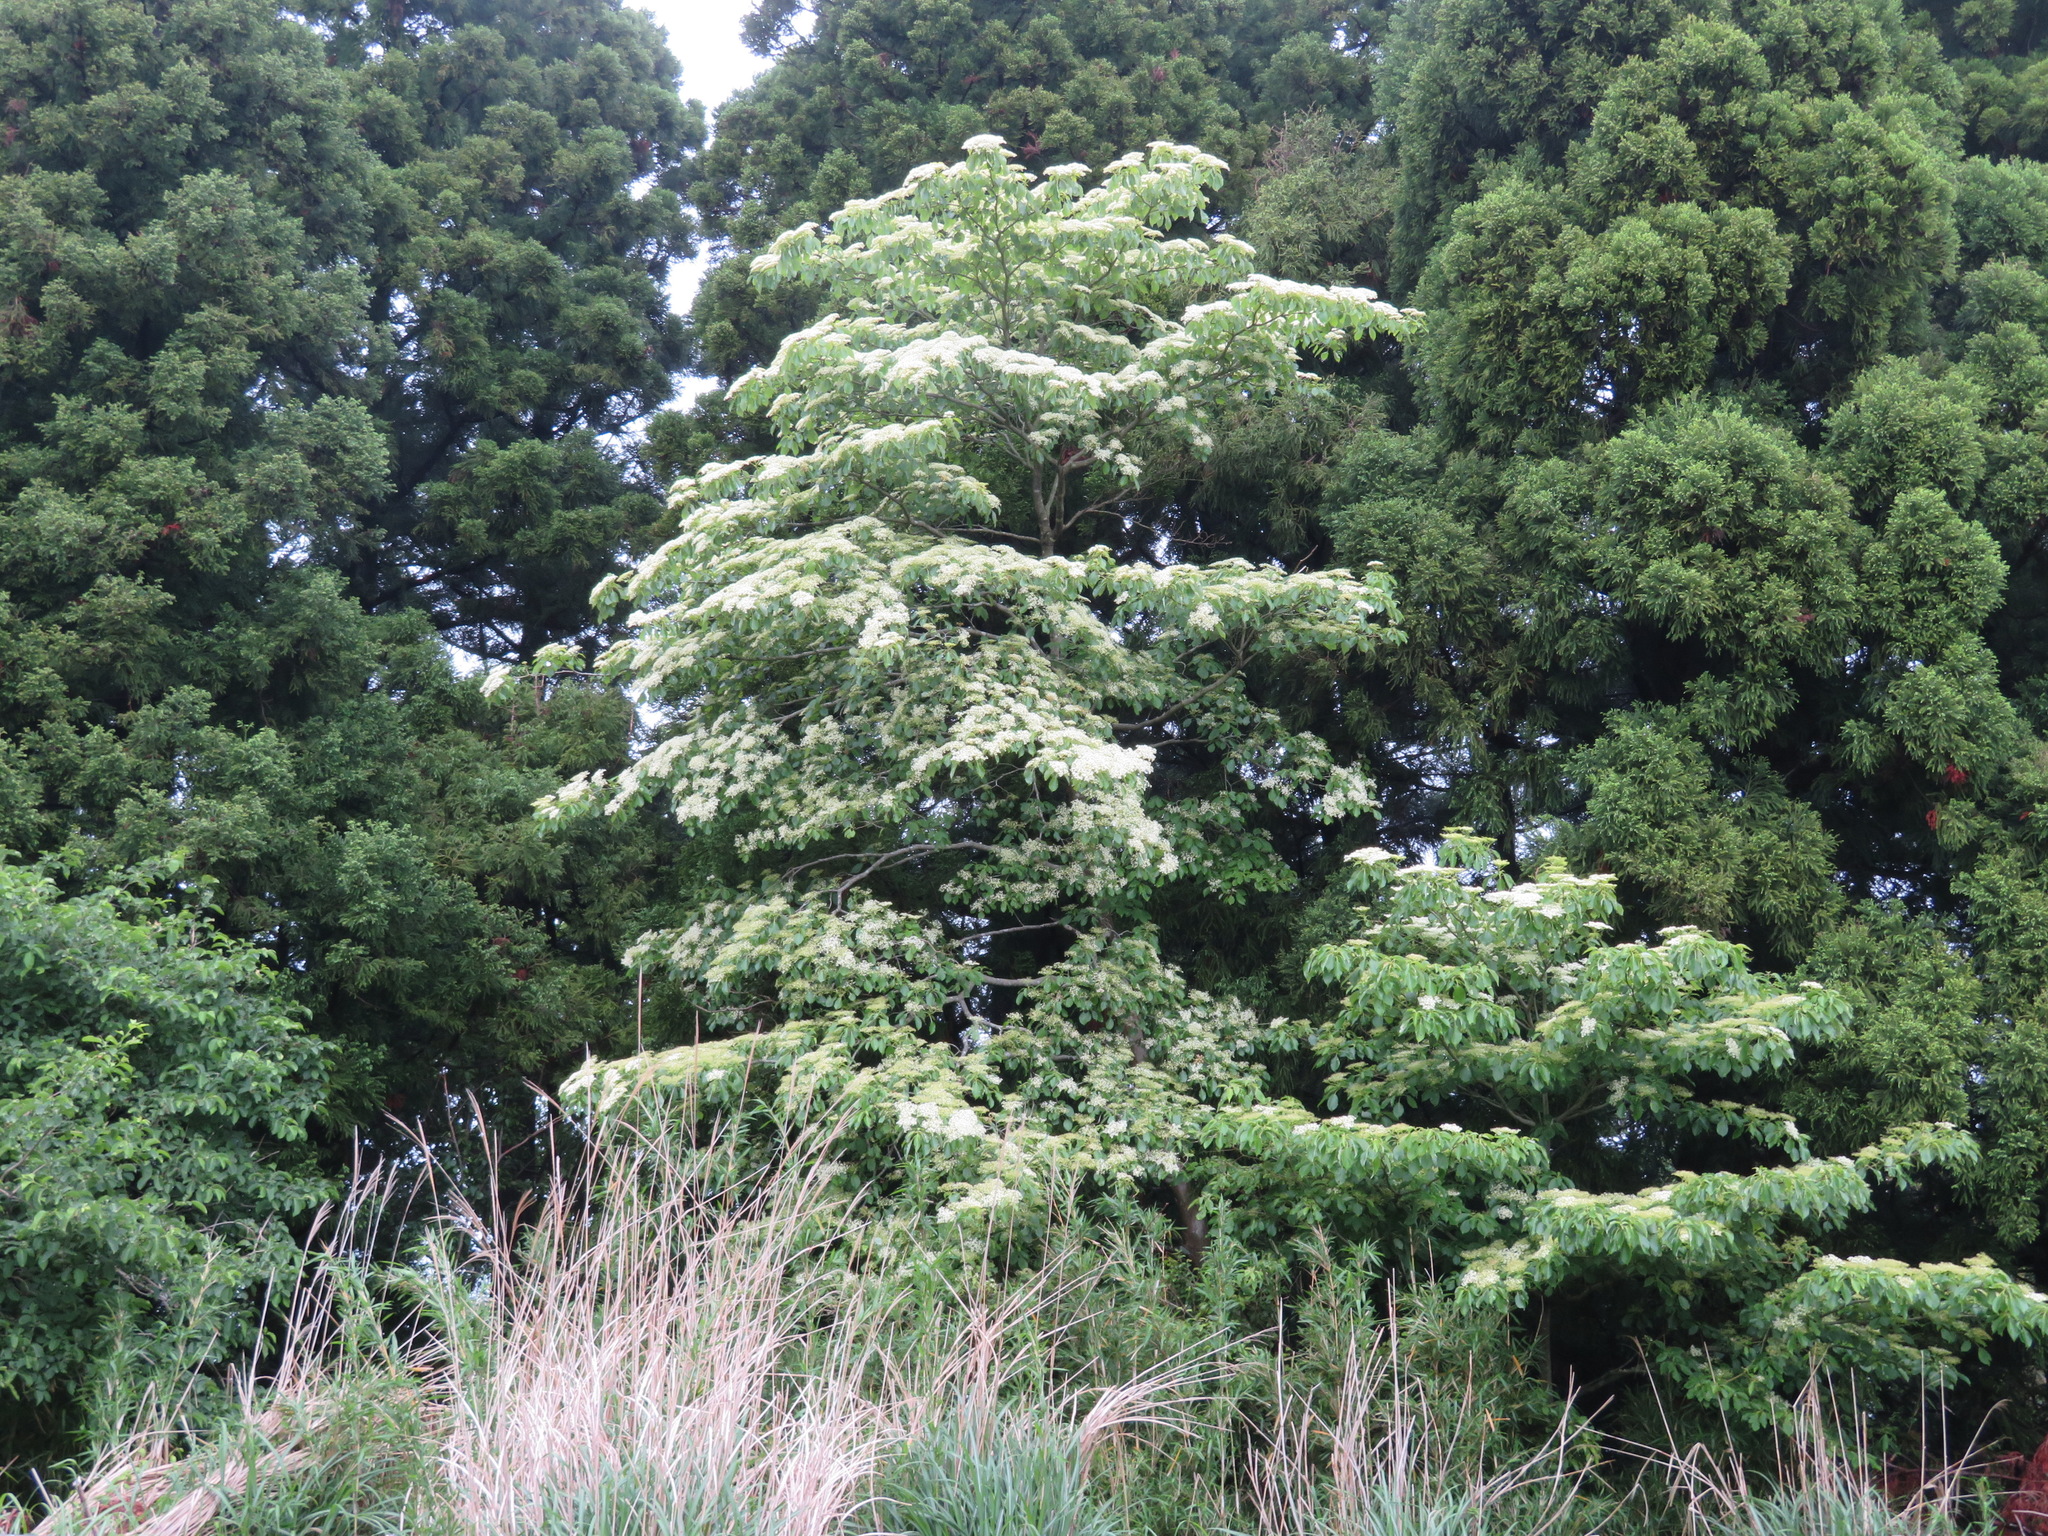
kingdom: Plantae
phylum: Tracheophyta
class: Magnoliopsida
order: Cornales
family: Cornaceae
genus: Cornus
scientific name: Cornus controversa
